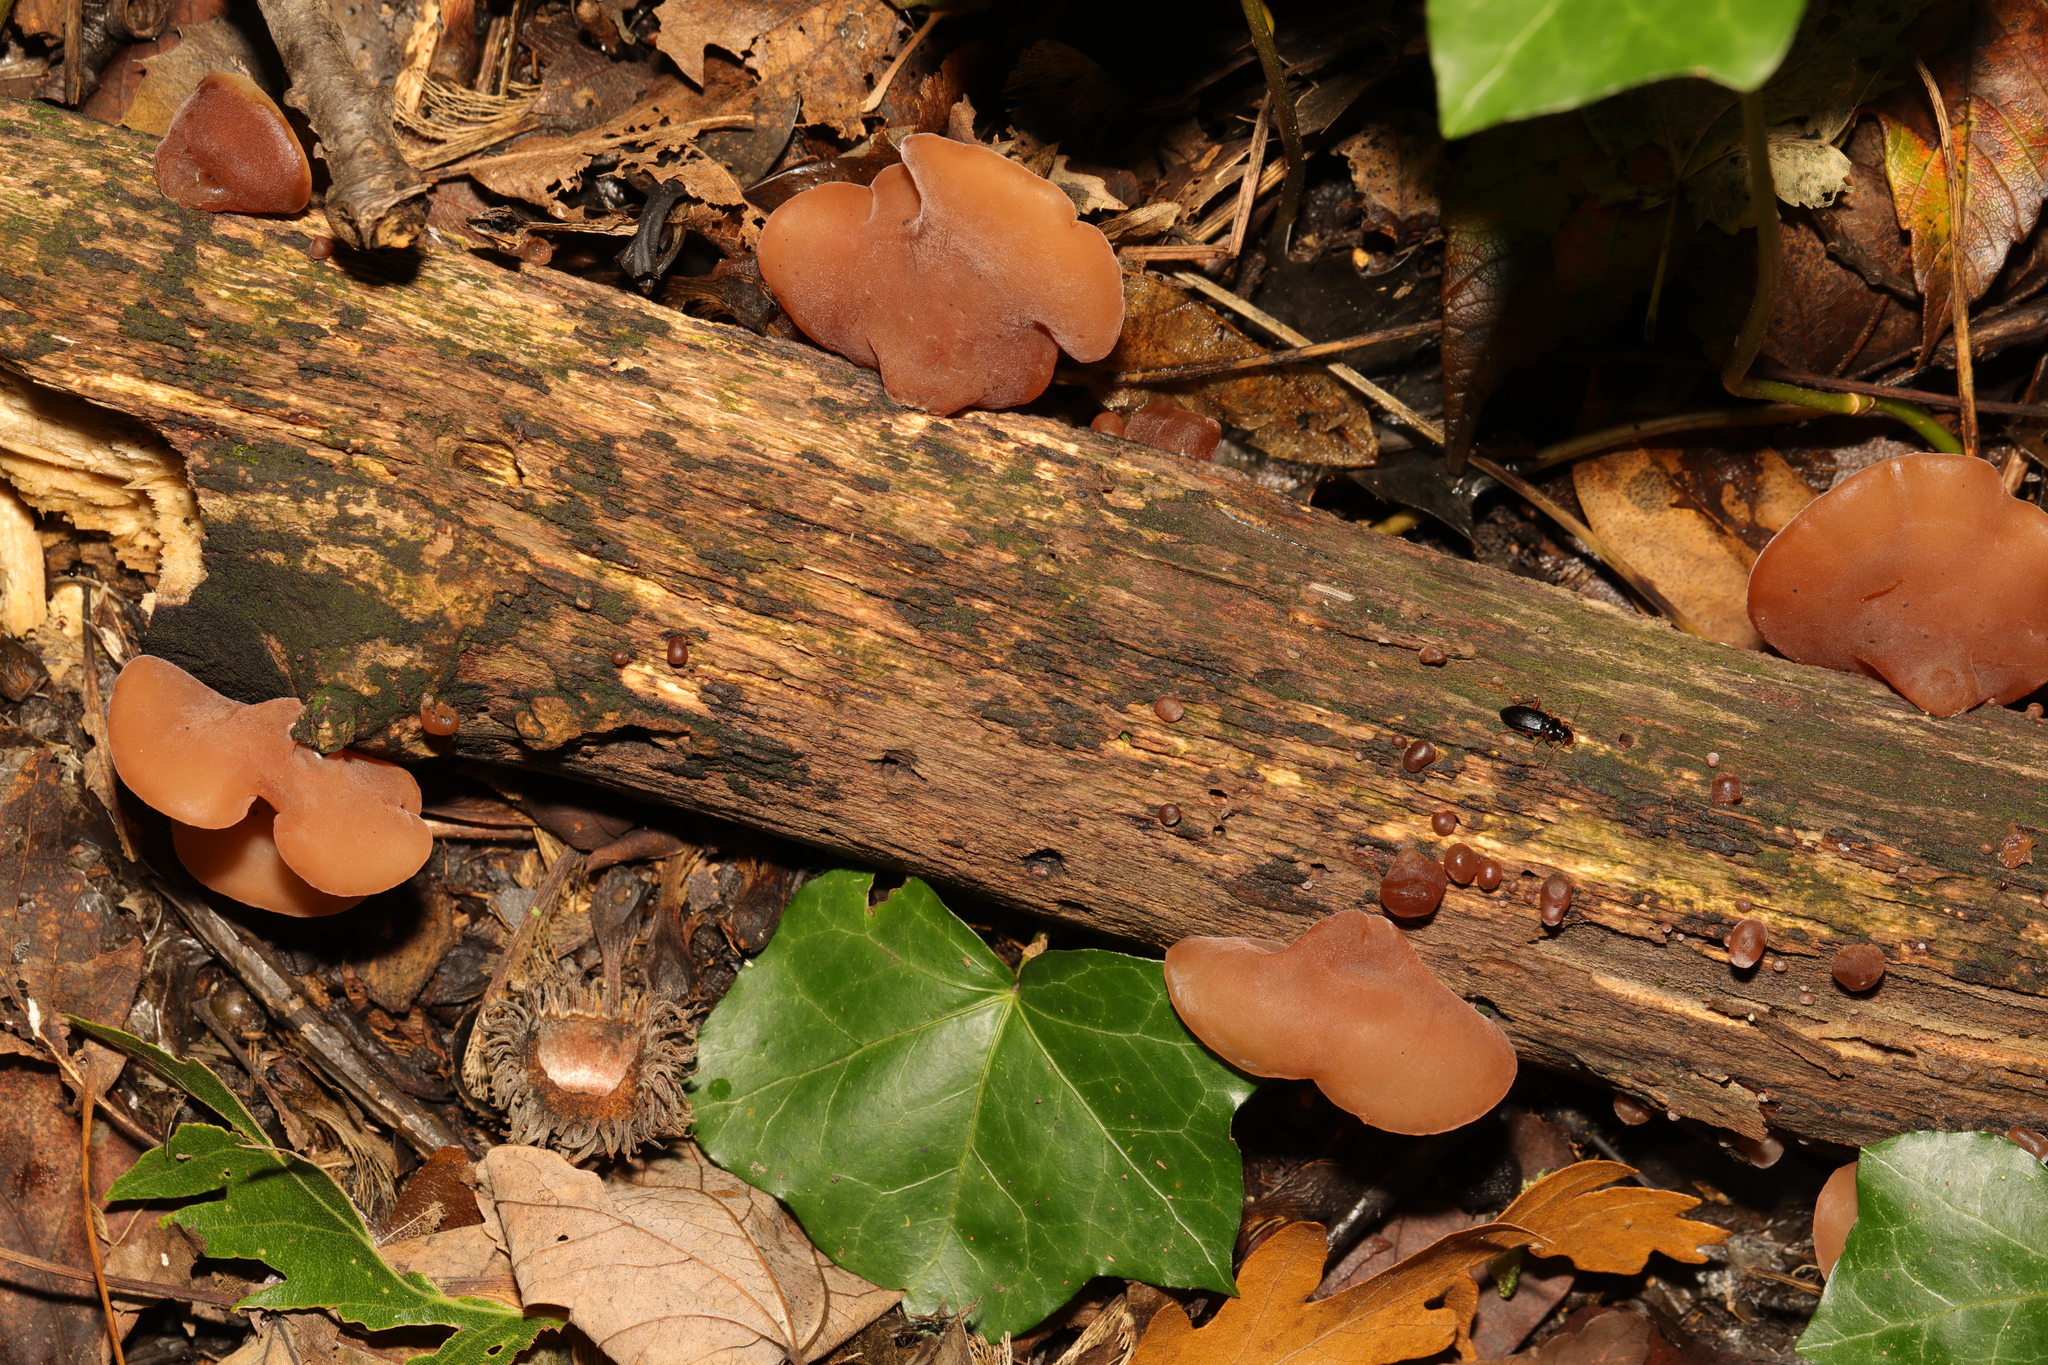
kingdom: Fungi
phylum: Basidiomycota
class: Agaricomycetes
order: Auriculariales
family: Auriculariaceae
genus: Auricularia
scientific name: Auricularia auricula-judae
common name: Jelly ear
